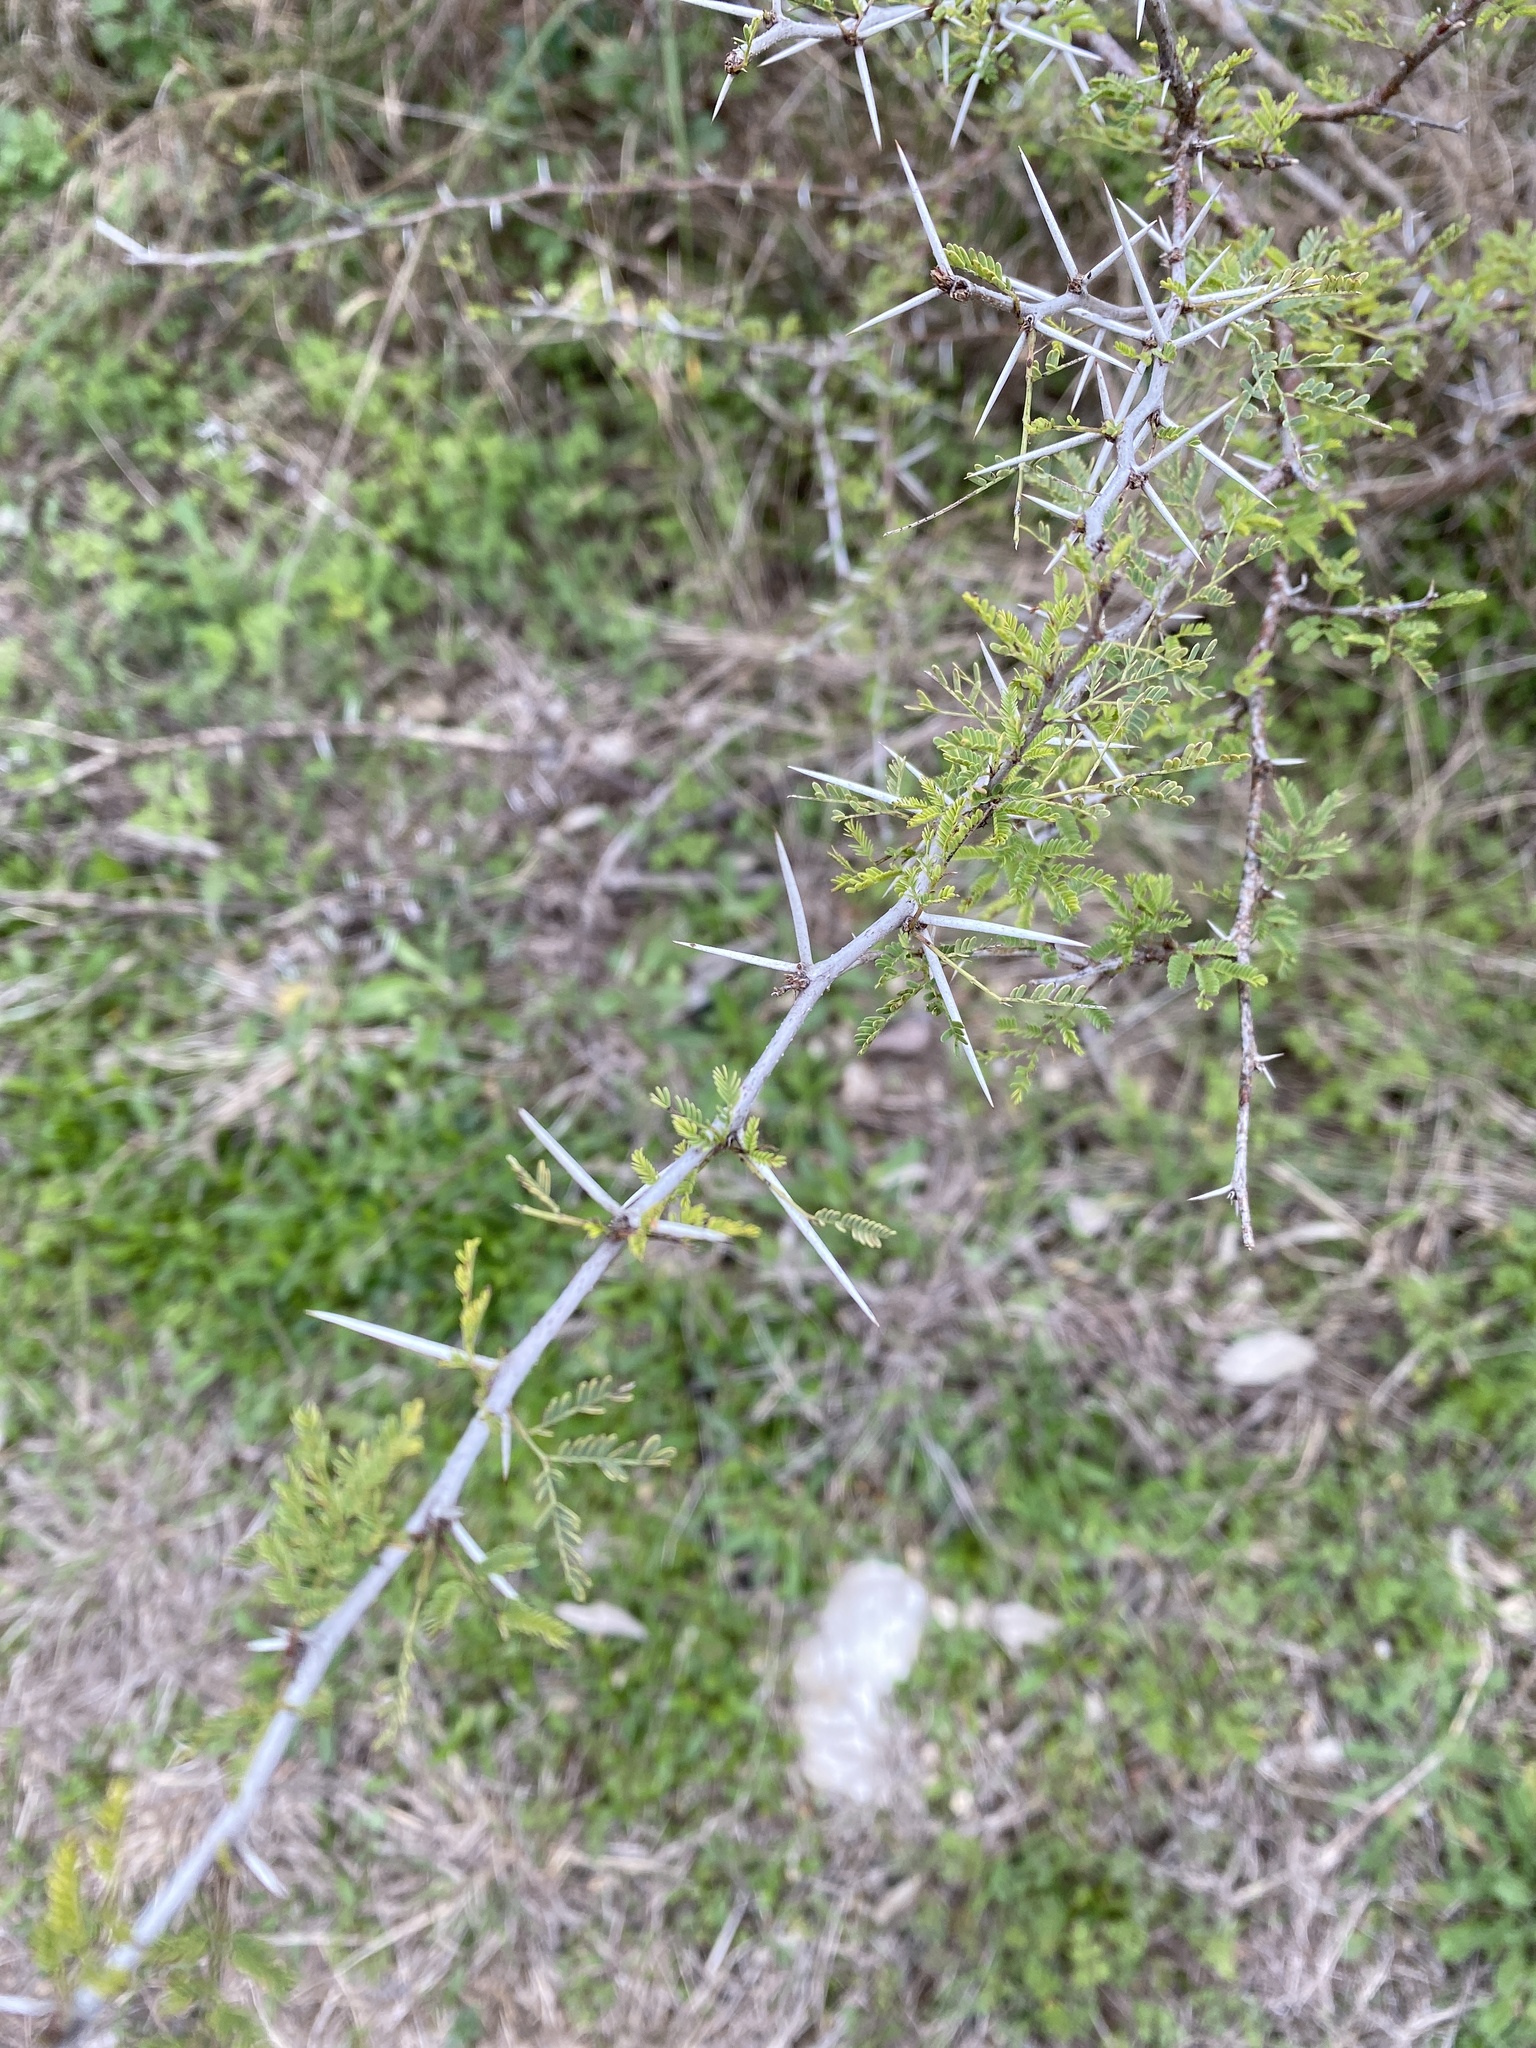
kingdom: Plantae
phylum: Tracheophyta
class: Magnoliopsida
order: Fabales
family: Fabaceae
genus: Vachellia
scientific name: Vachellia farnesiana
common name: Sweet acacia
